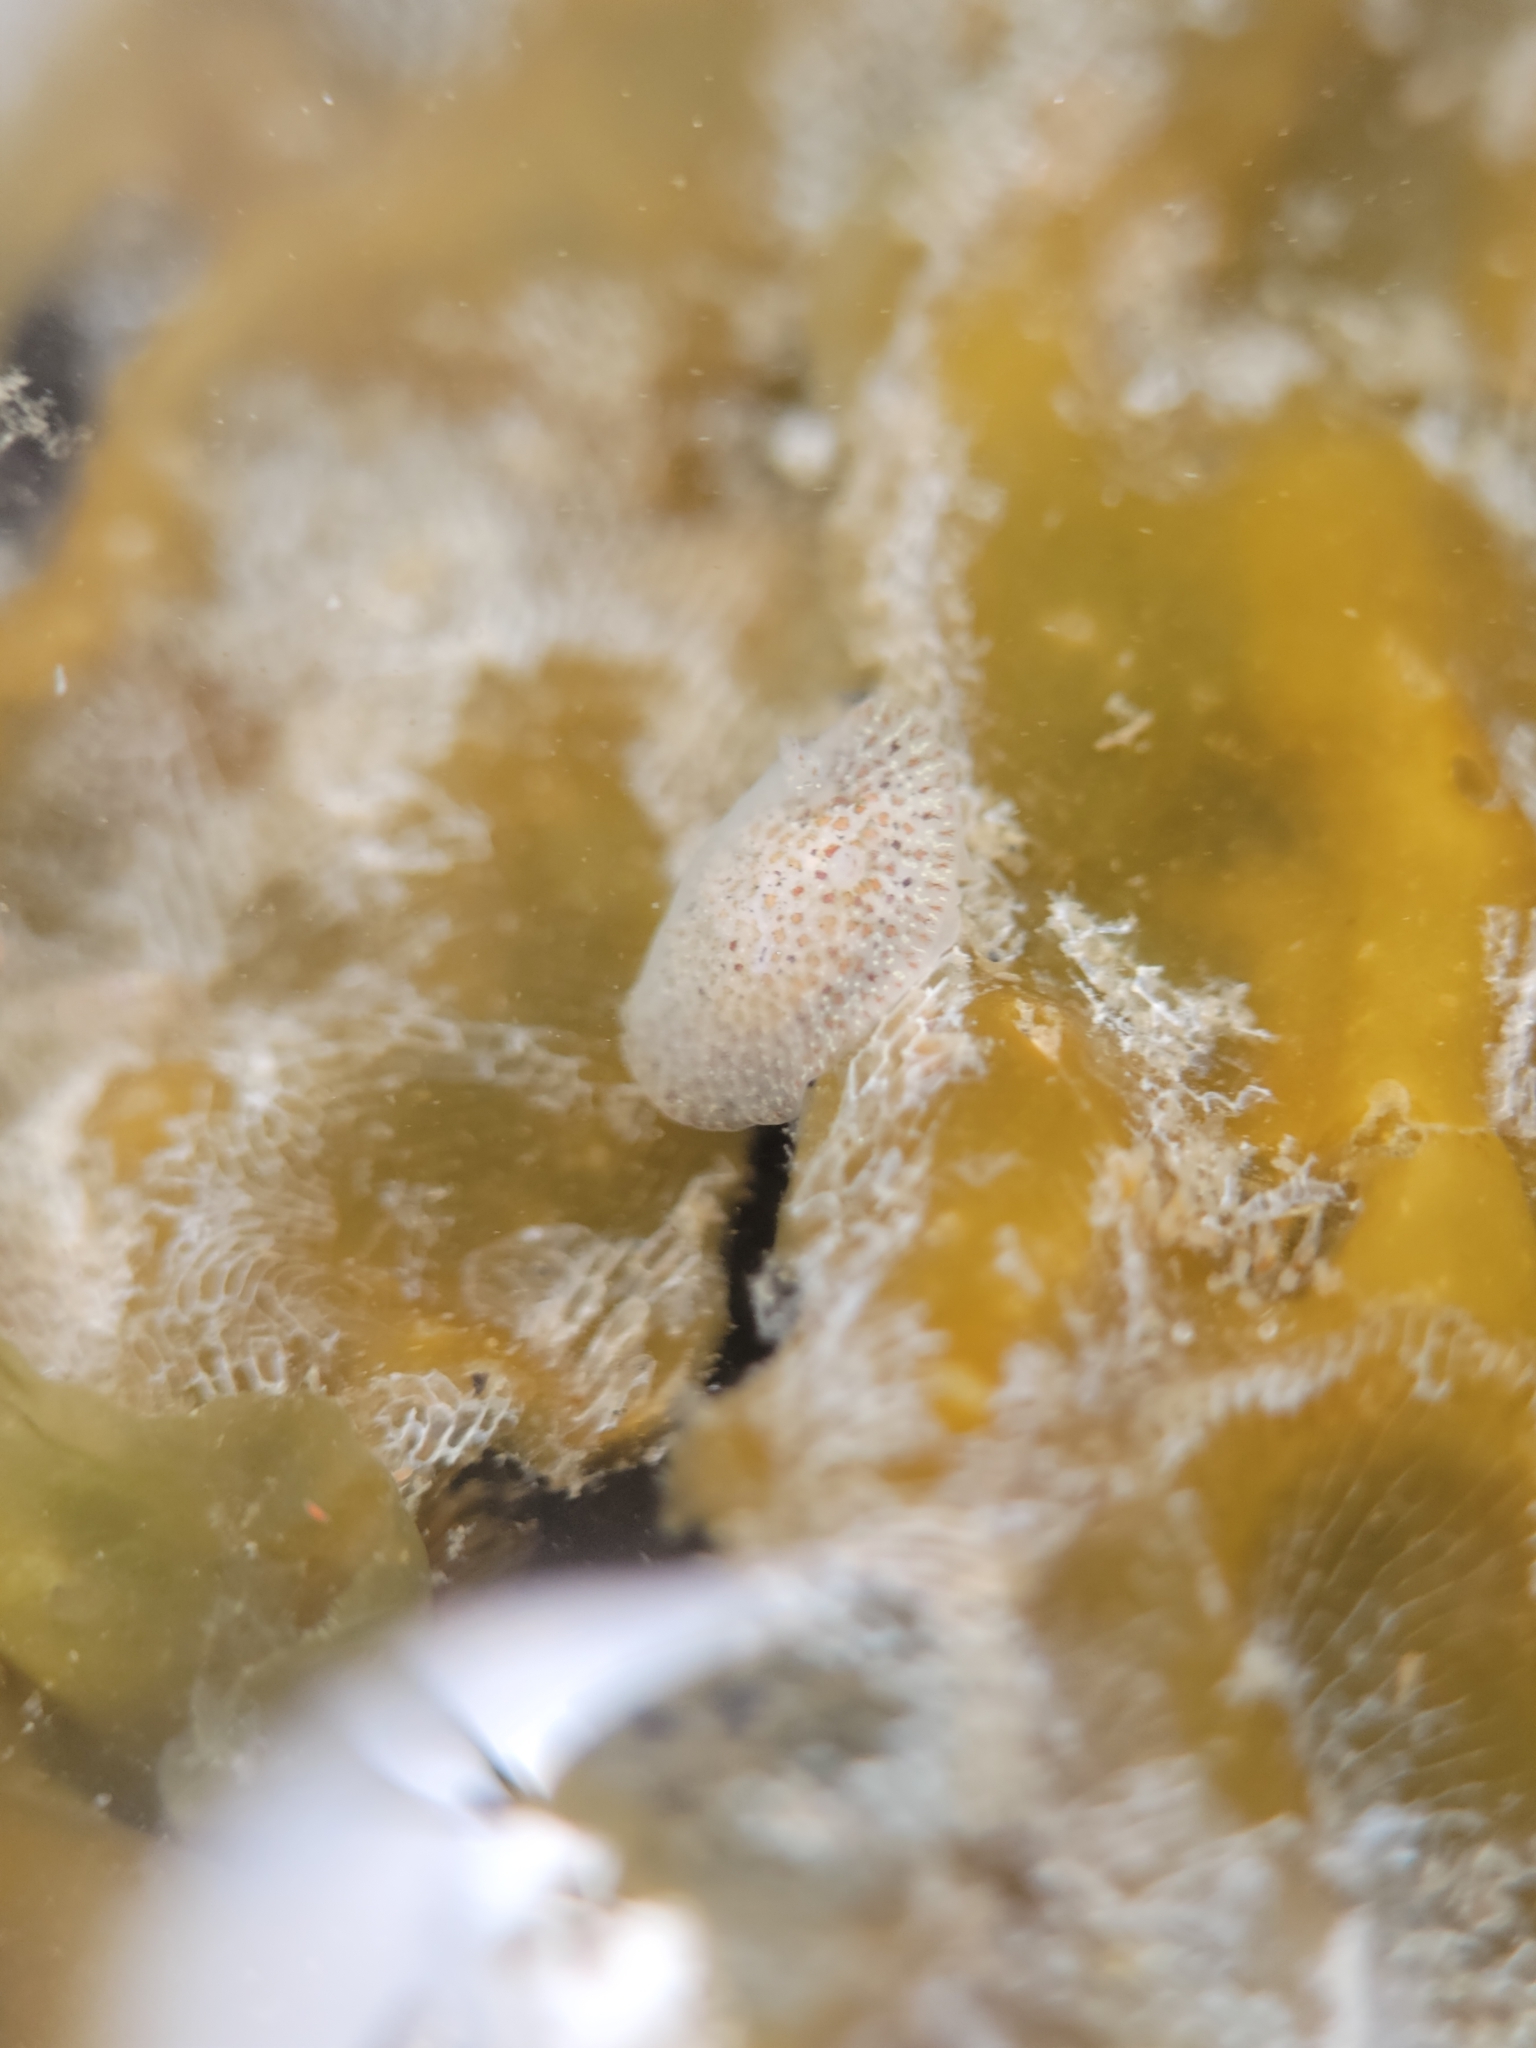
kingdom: Animalia
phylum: Mollusca
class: Gastropoda
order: Nudibranchia
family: Corambidae
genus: Corambe
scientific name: Corambe pacifica
